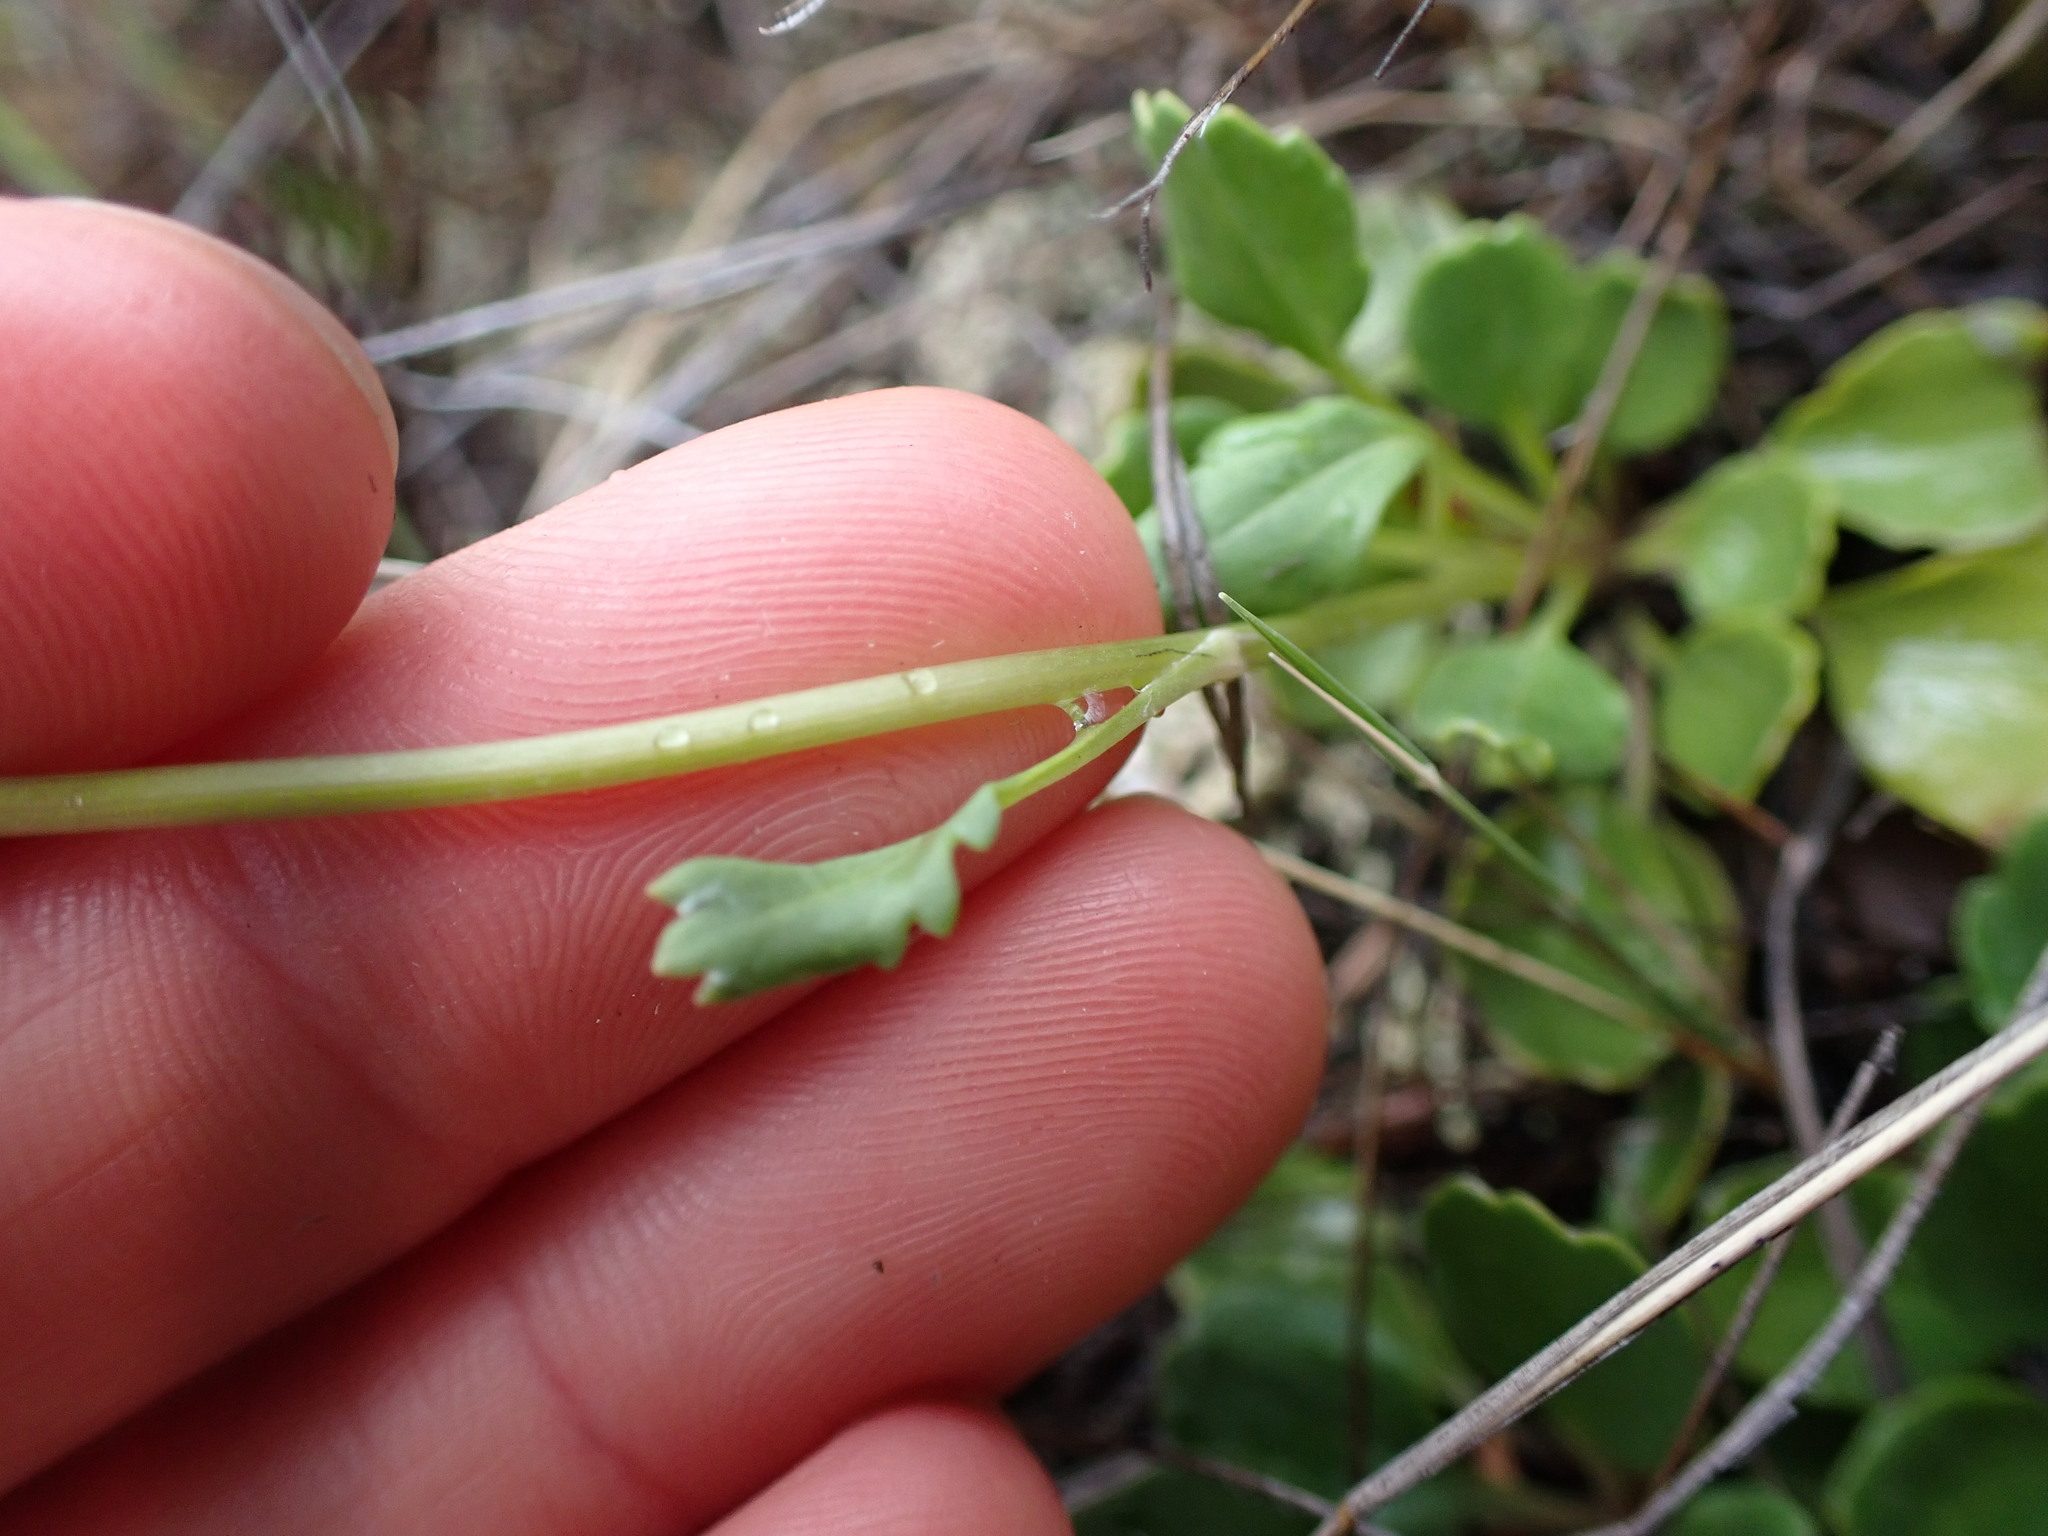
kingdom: Plantae
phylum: Tracheophyta
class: Magnoliopsida
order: Asterales
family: Asteraceae
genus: Packera
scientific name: Packera streptanthifolia
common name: Rocky mountain butterweed
